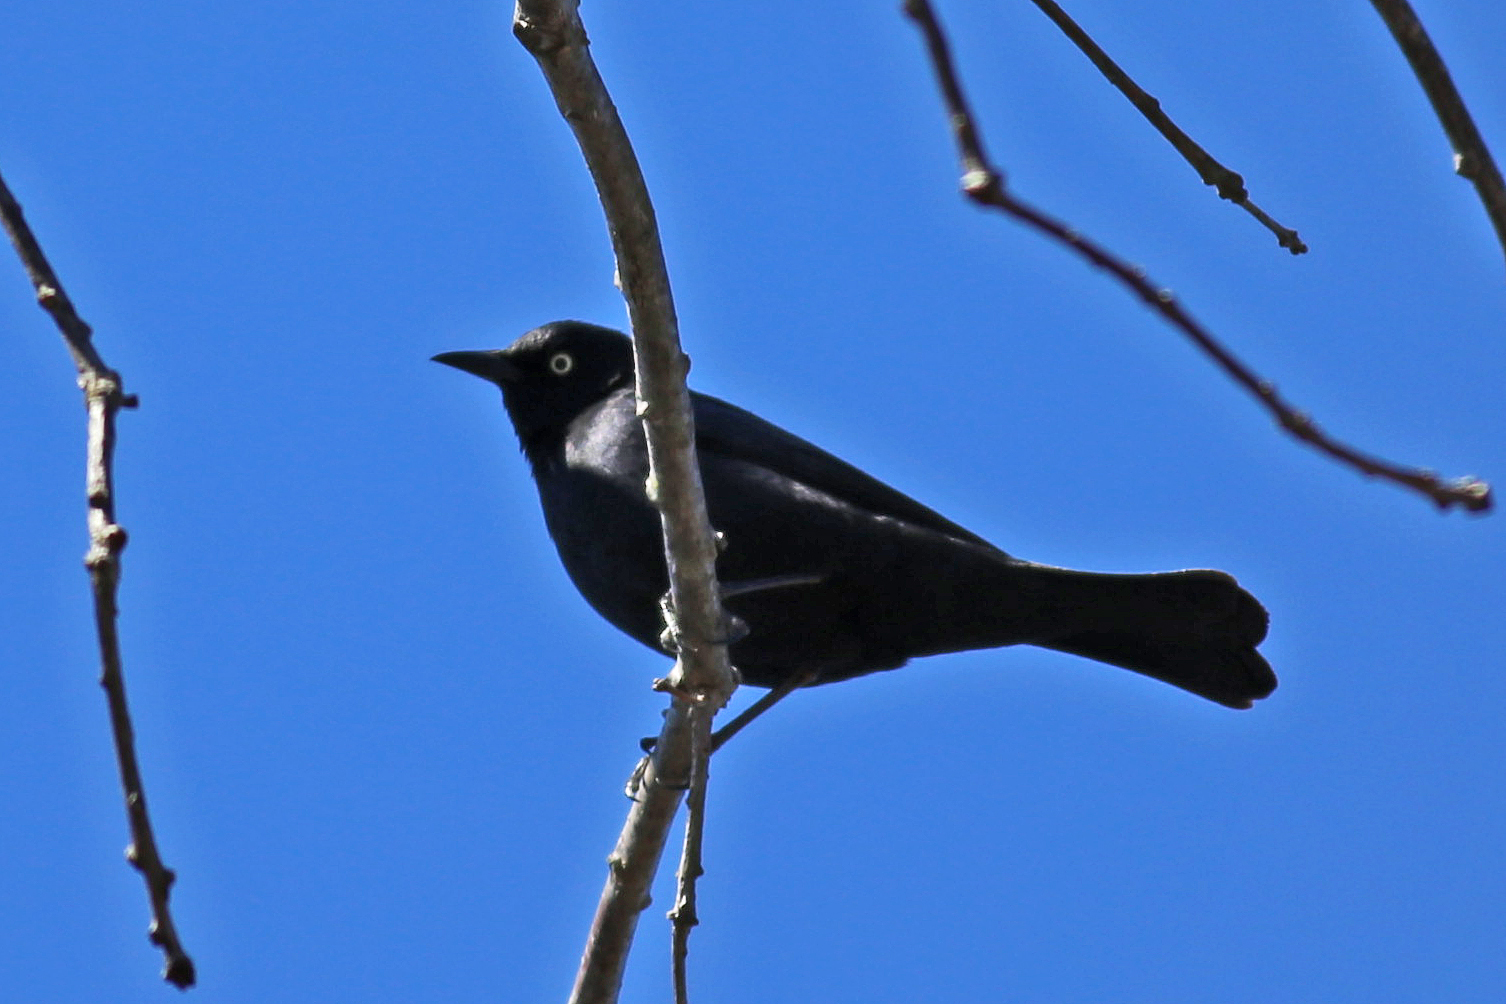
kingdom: Animalia
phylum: Chordata
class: Aves
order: Passeriformes
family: Icteridae
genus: Euphagus
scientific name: Euphagus carolinus
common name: Rusty blackbird
